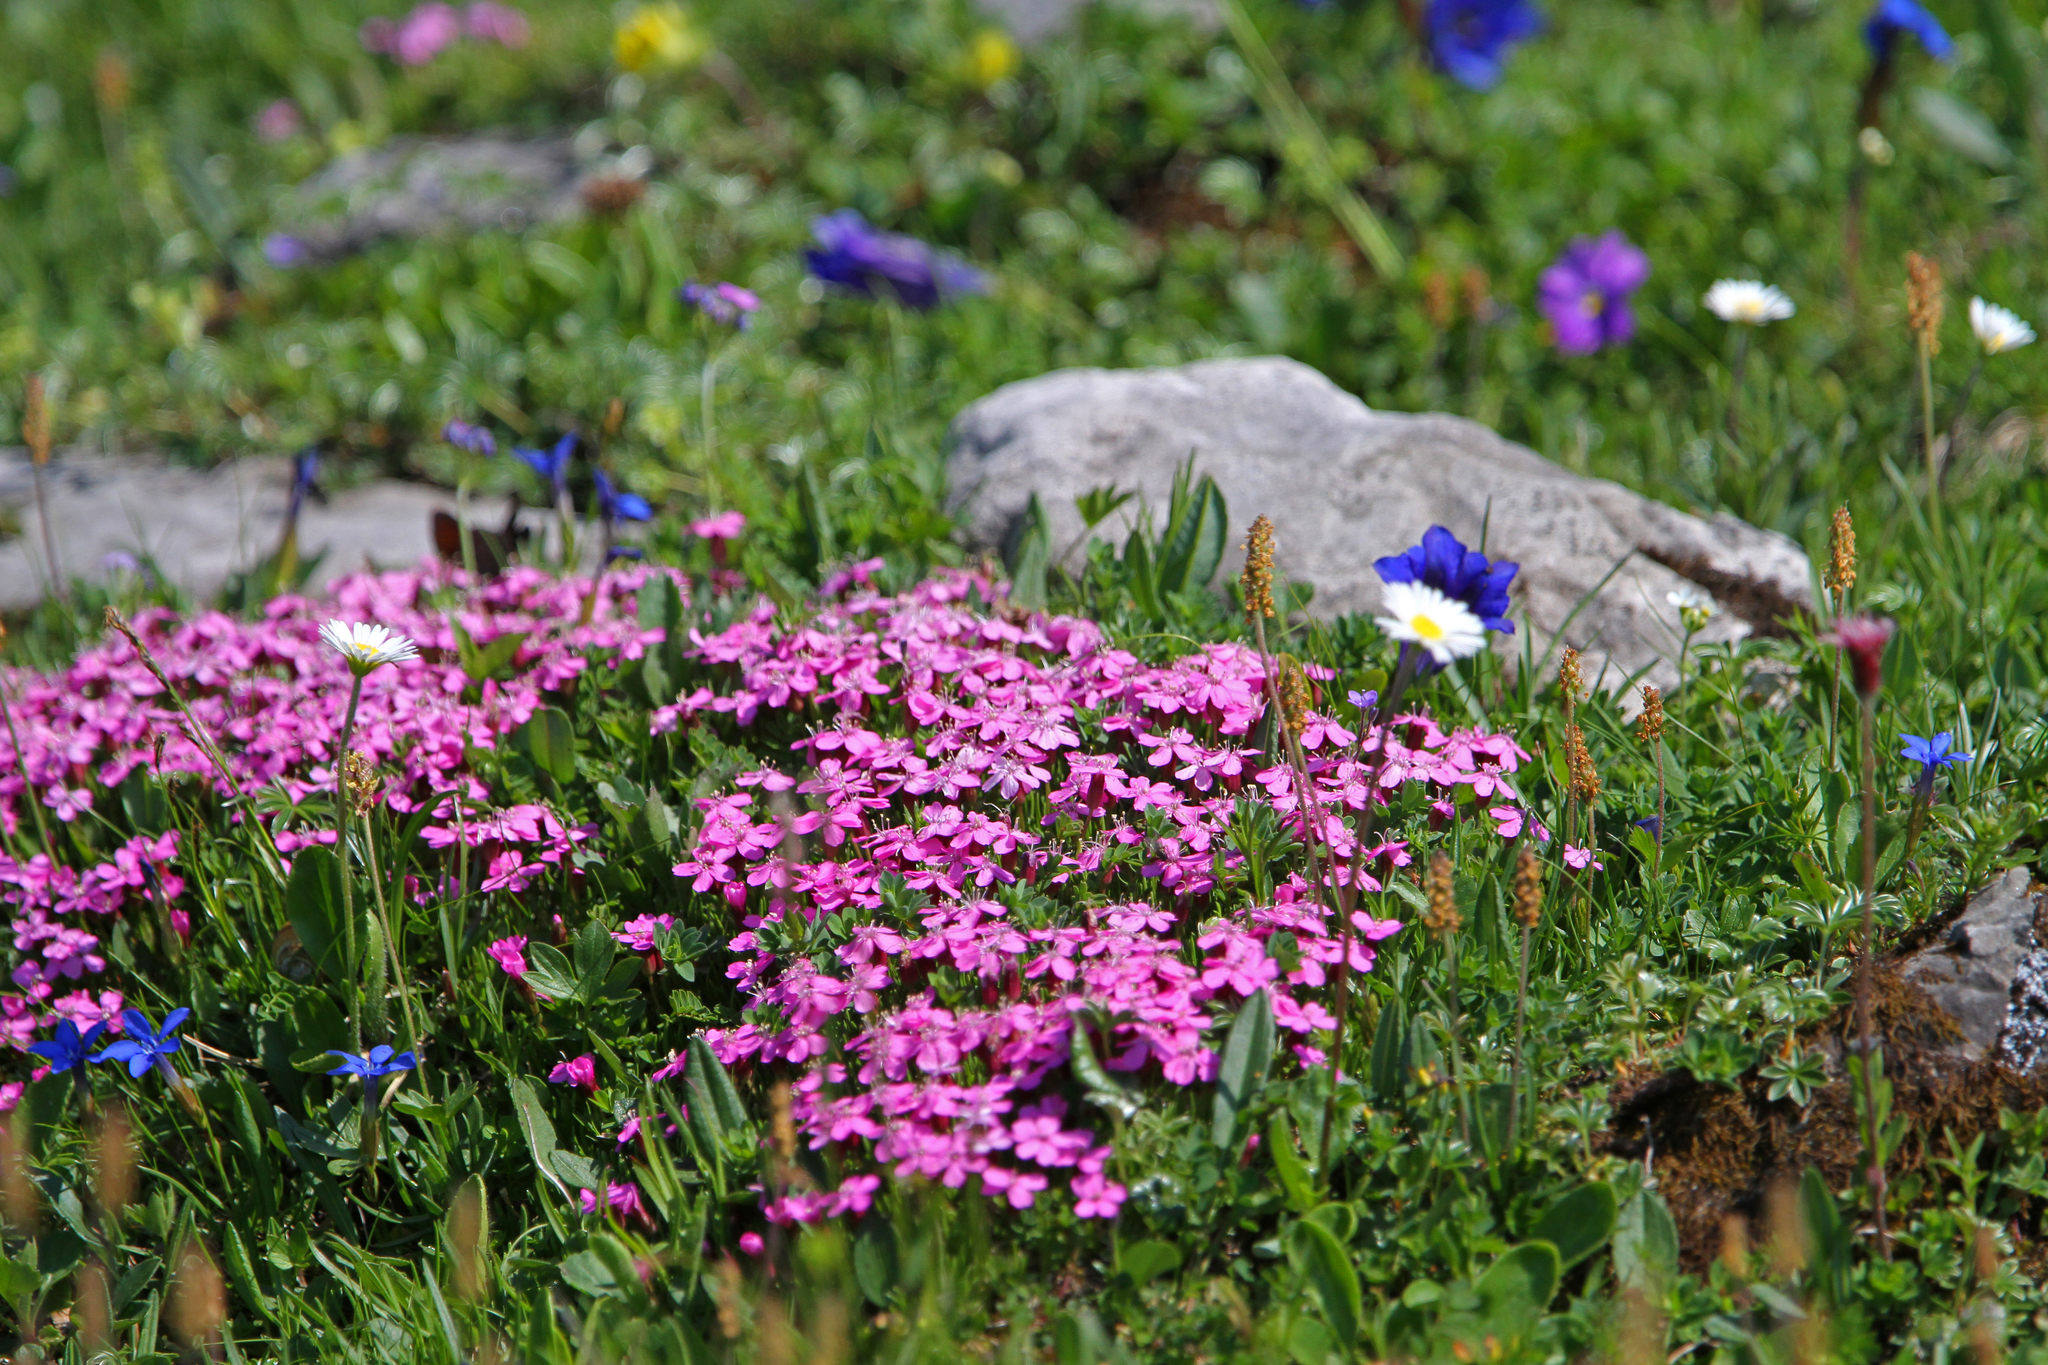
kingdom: Plantae
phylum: Tracheophyta
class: Magnoliopsida
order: Caryophyllales
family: Caryophyllaceae
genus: Silene
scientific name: Silene acaulis
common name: Moss campion
